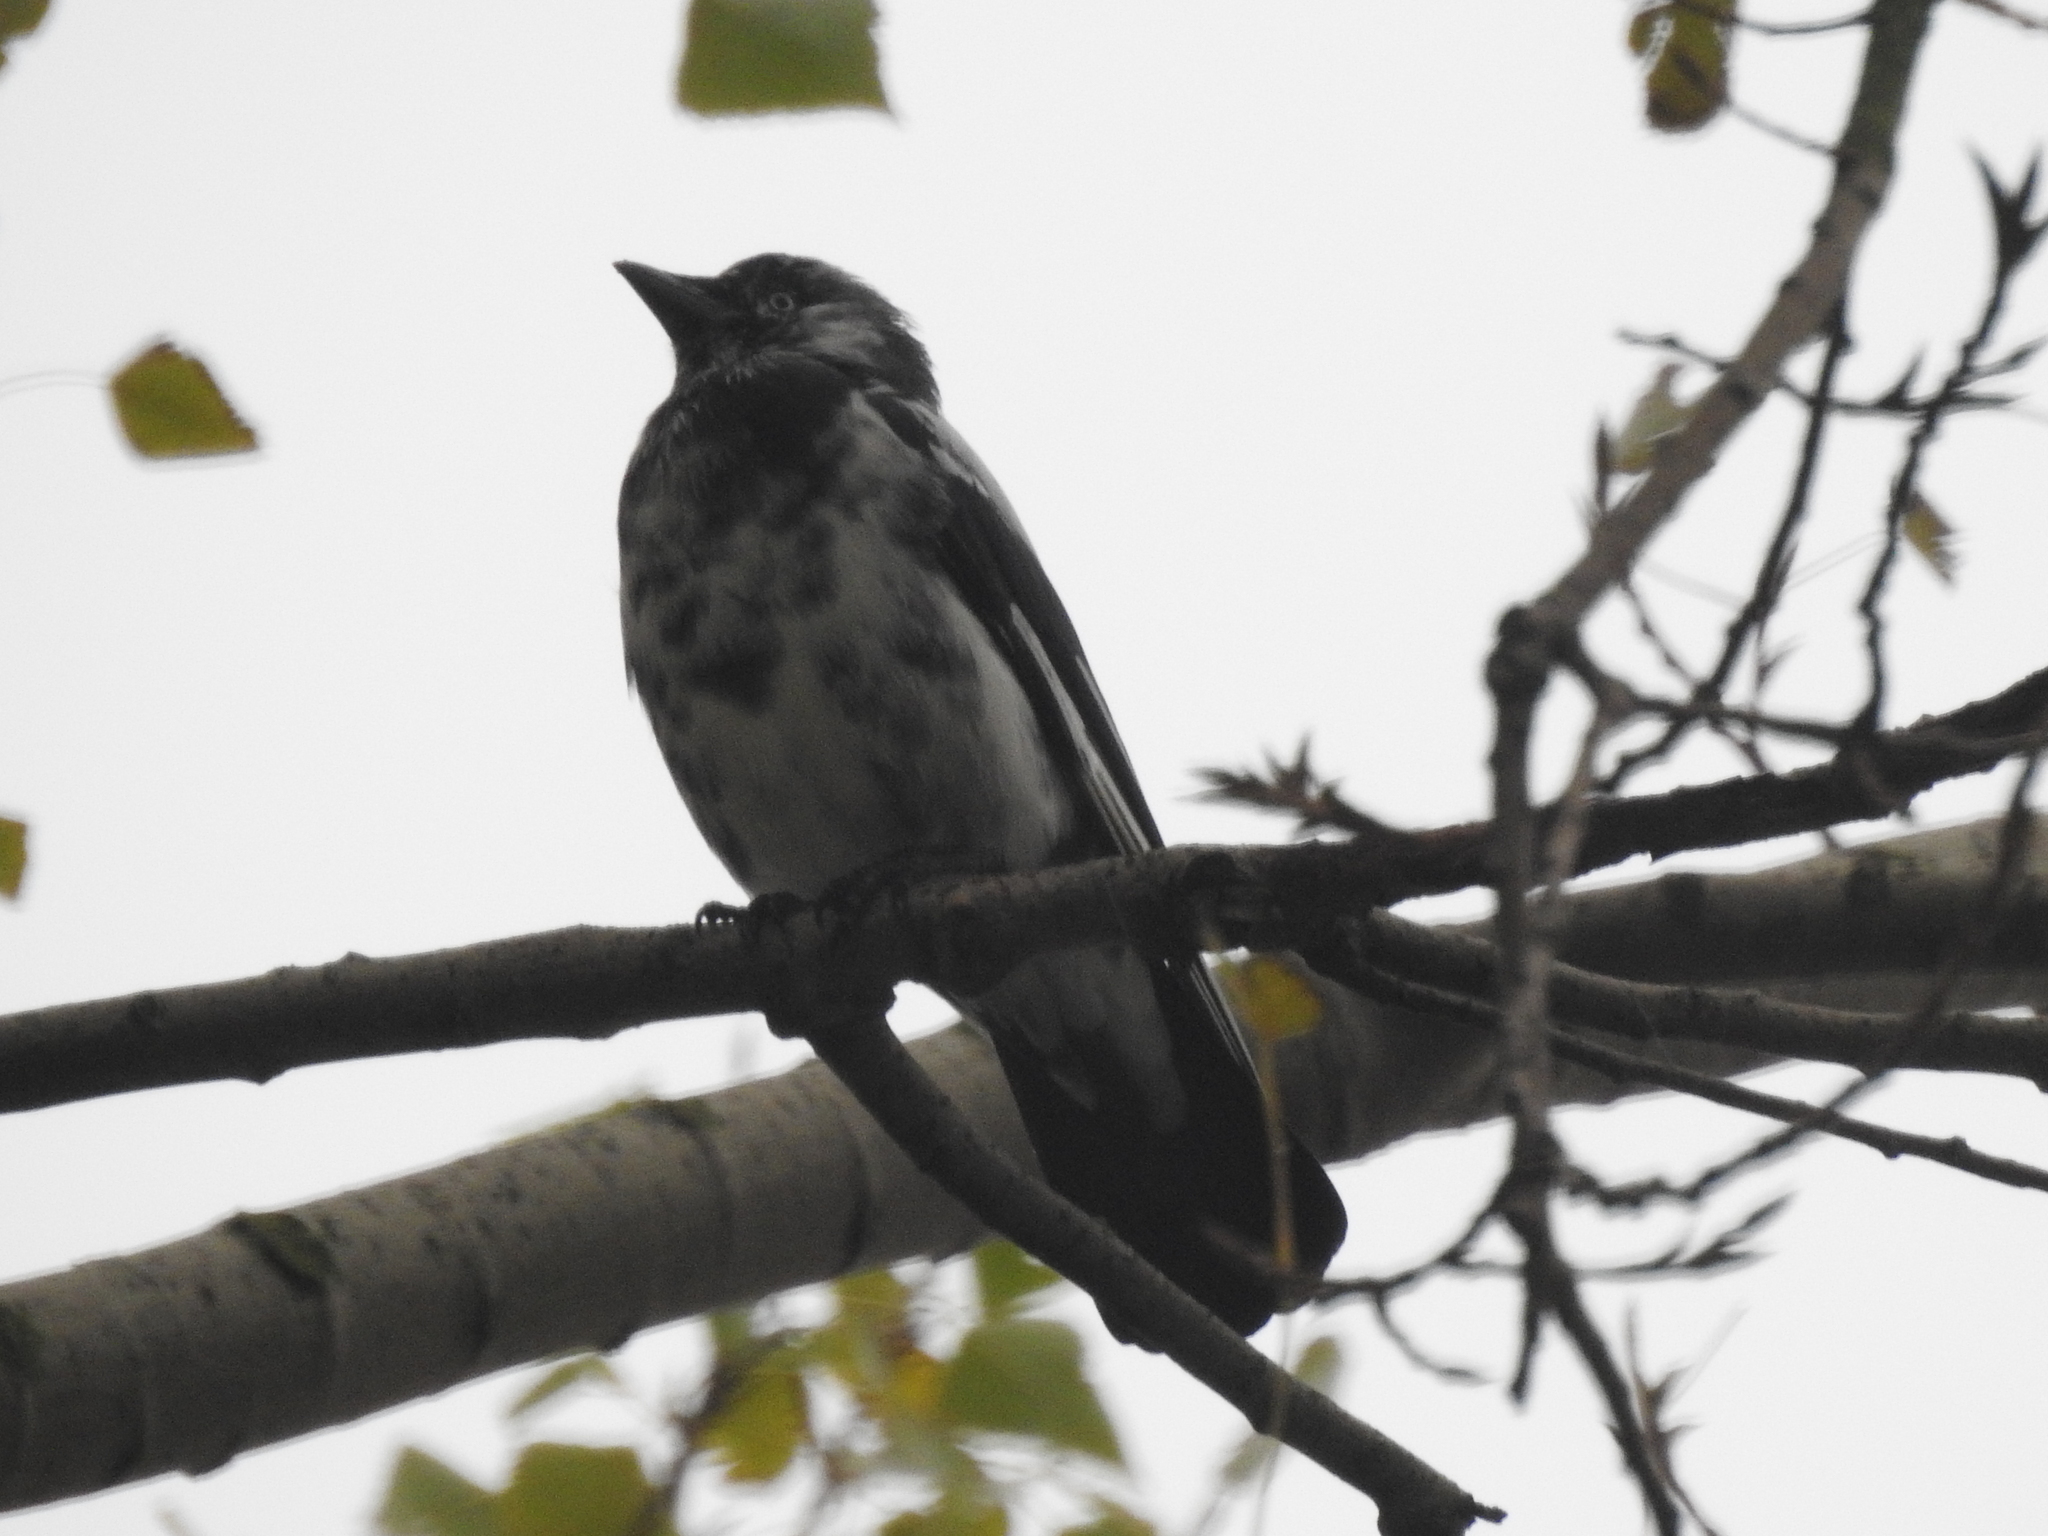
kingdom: Animalia
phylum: Chordata
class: Aves
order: Passeriformes
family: Corvidae
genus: Coloeus
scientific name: Coloeus monedula
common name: Western jackdaw
